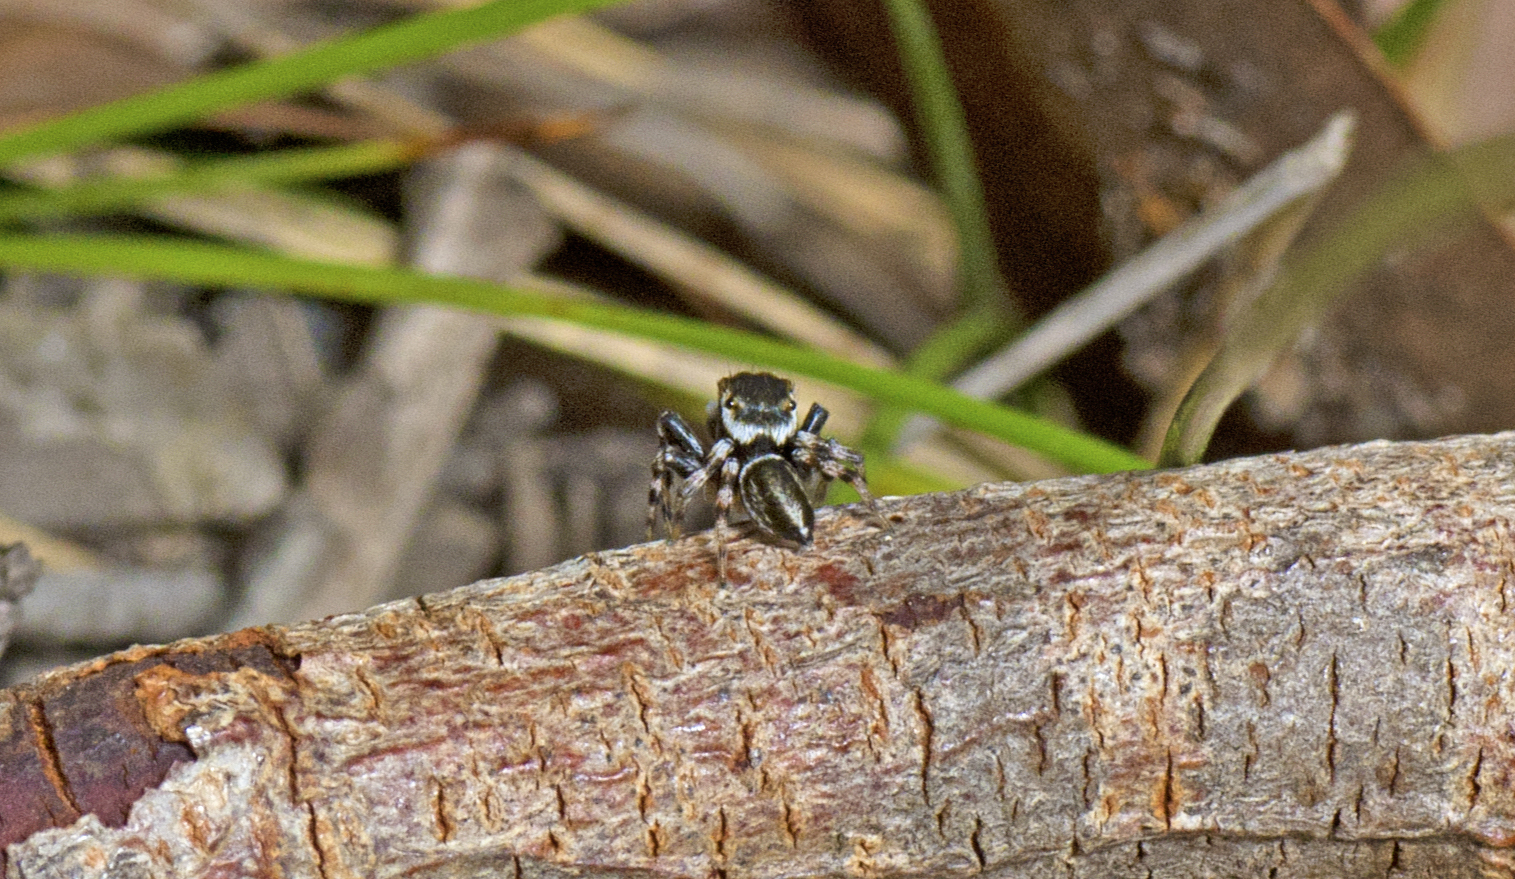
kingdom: Animalia
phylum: Arthropoda
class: Arachnida
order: Araneae
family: Salticidae
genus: Maratus
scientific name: Maratus scutulatus
